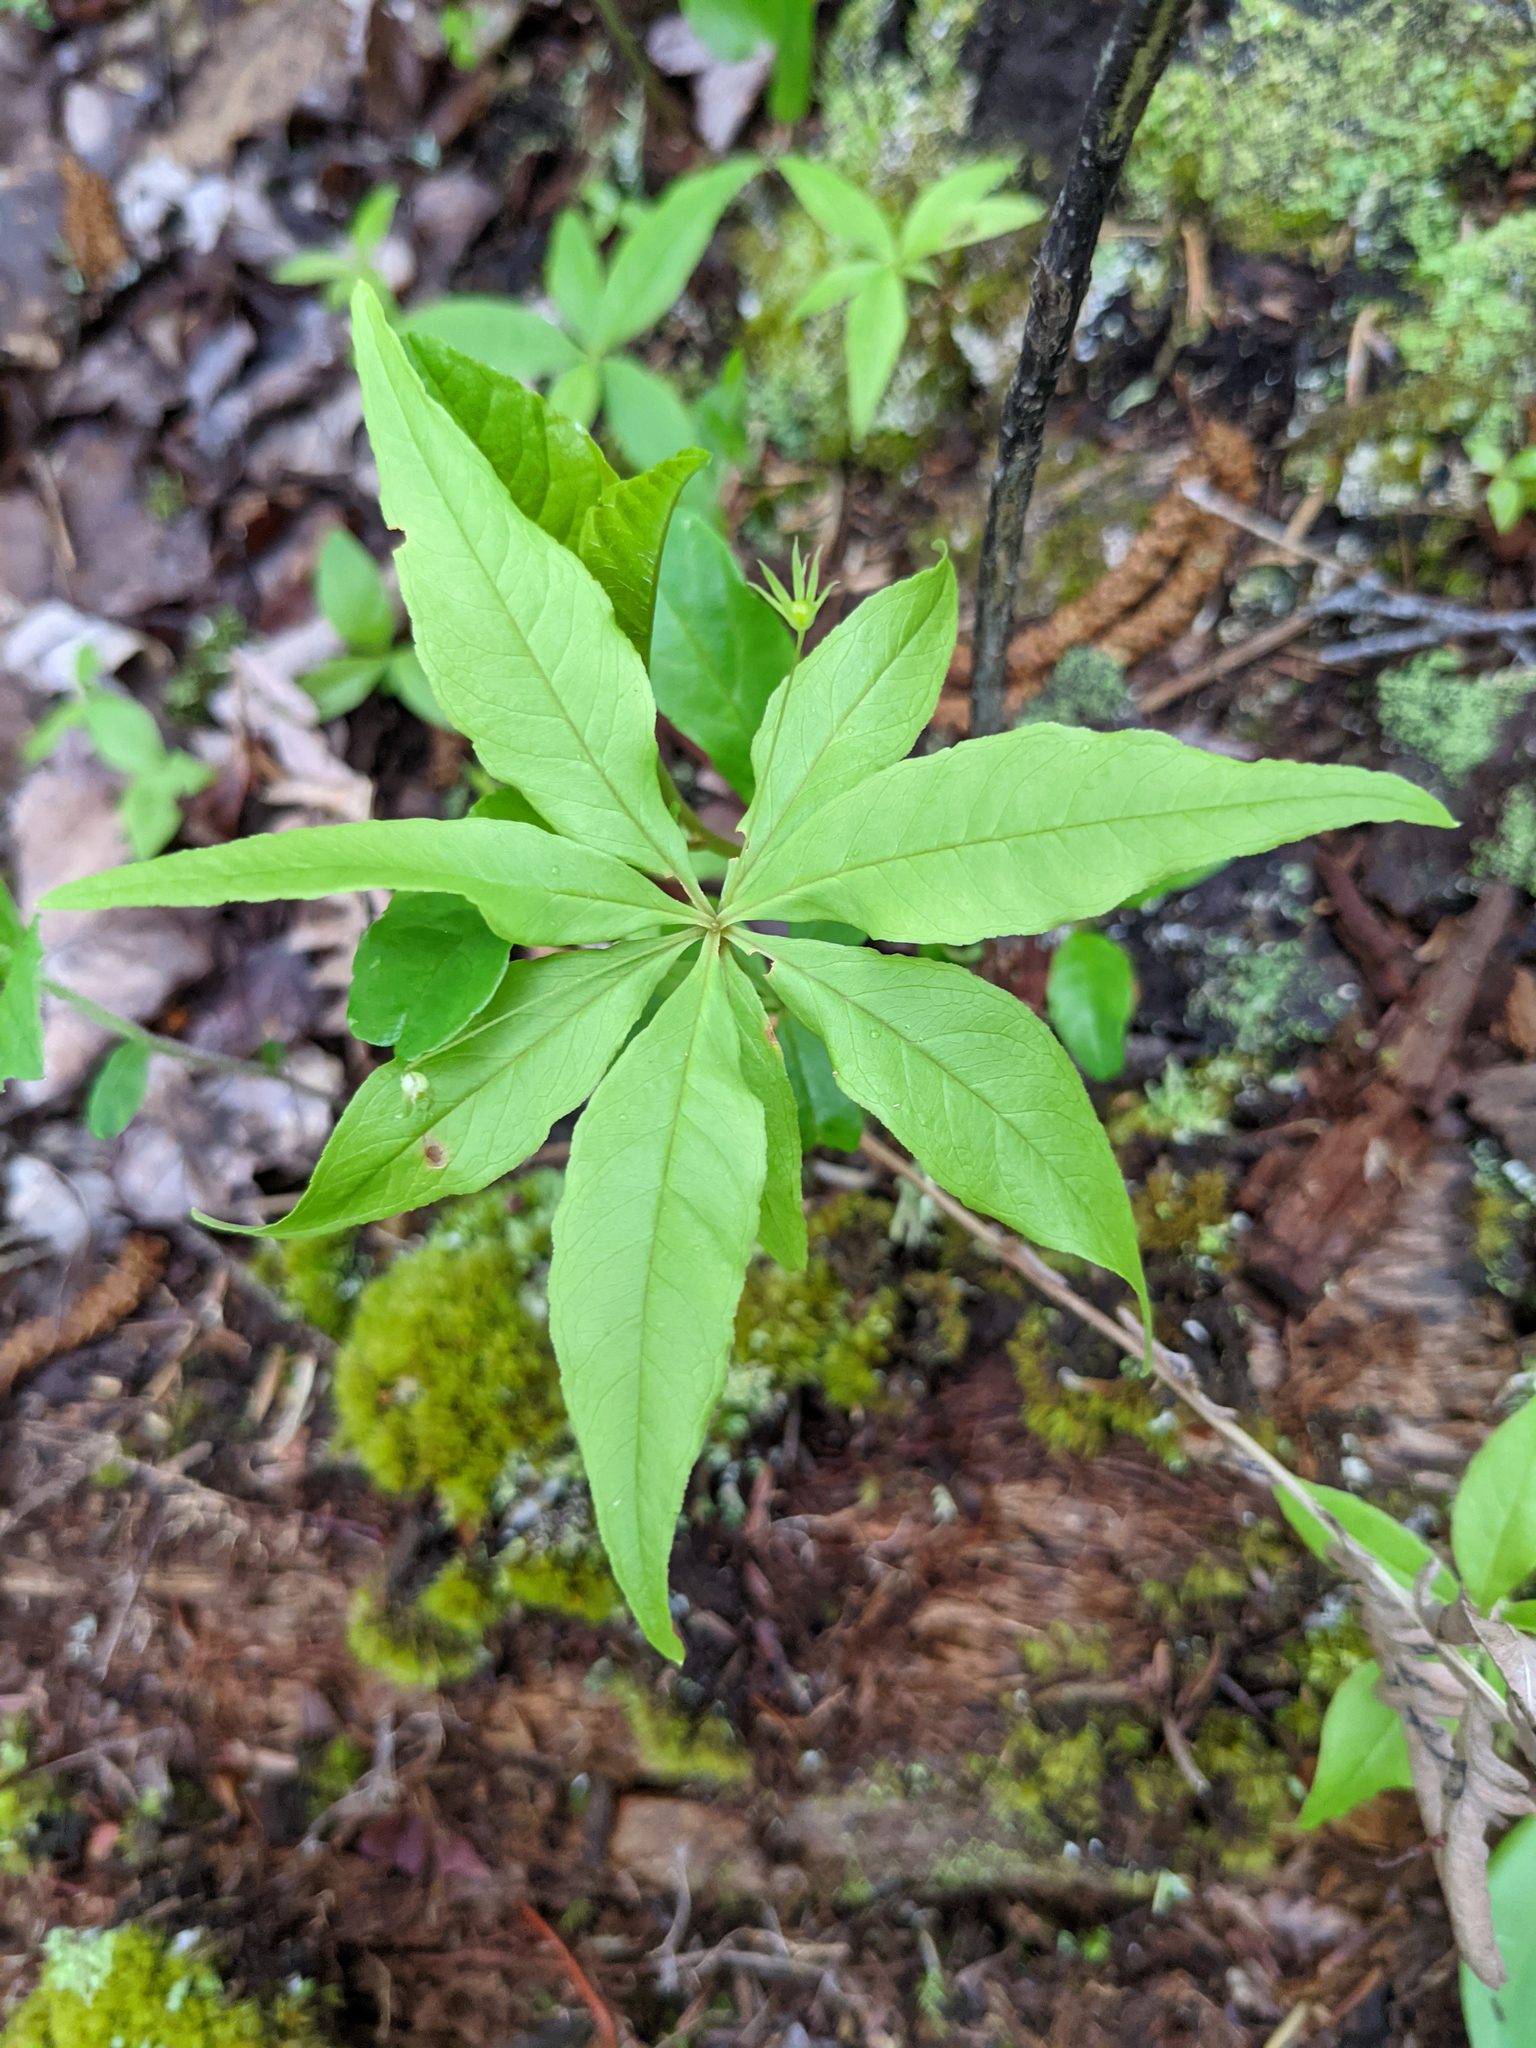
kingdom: Plantae
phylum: Tracheophyta
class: Magnoliopsida
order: Ericales
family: Primulaceae
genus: Lysimachia
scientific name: Lysimachia borealis
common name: American starflower
